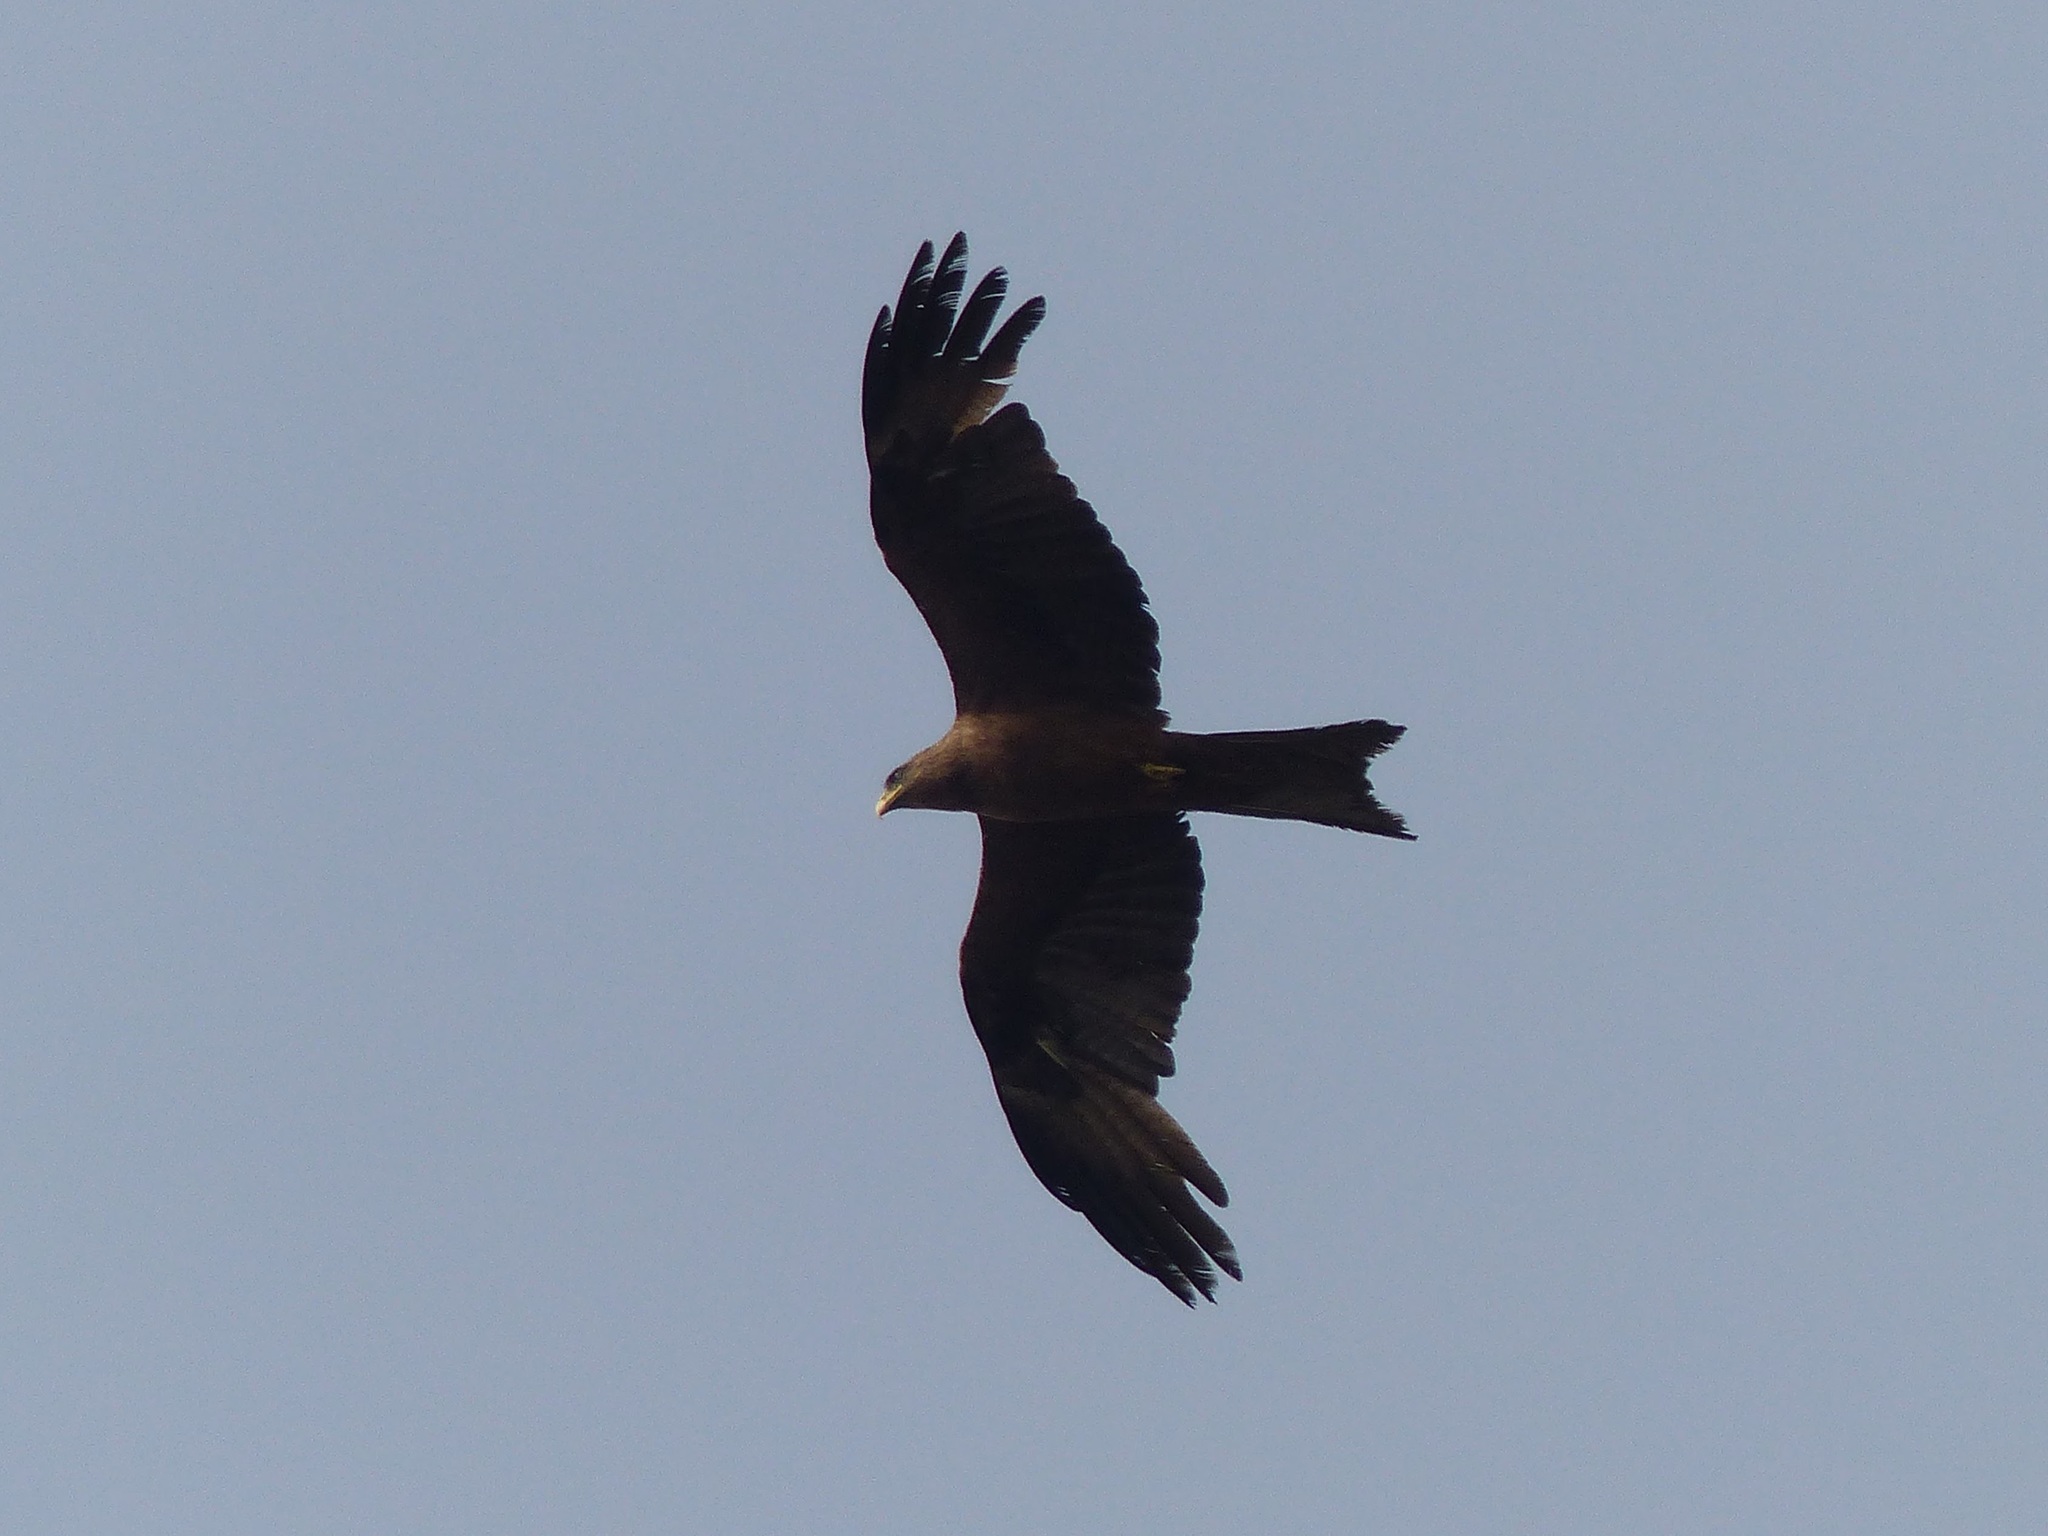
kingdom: Animalia
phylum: Chordata
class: Aves
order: Accipitriformes
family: Accipitridae
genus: Milvus
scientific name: Milvus migrans
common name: Black kite
